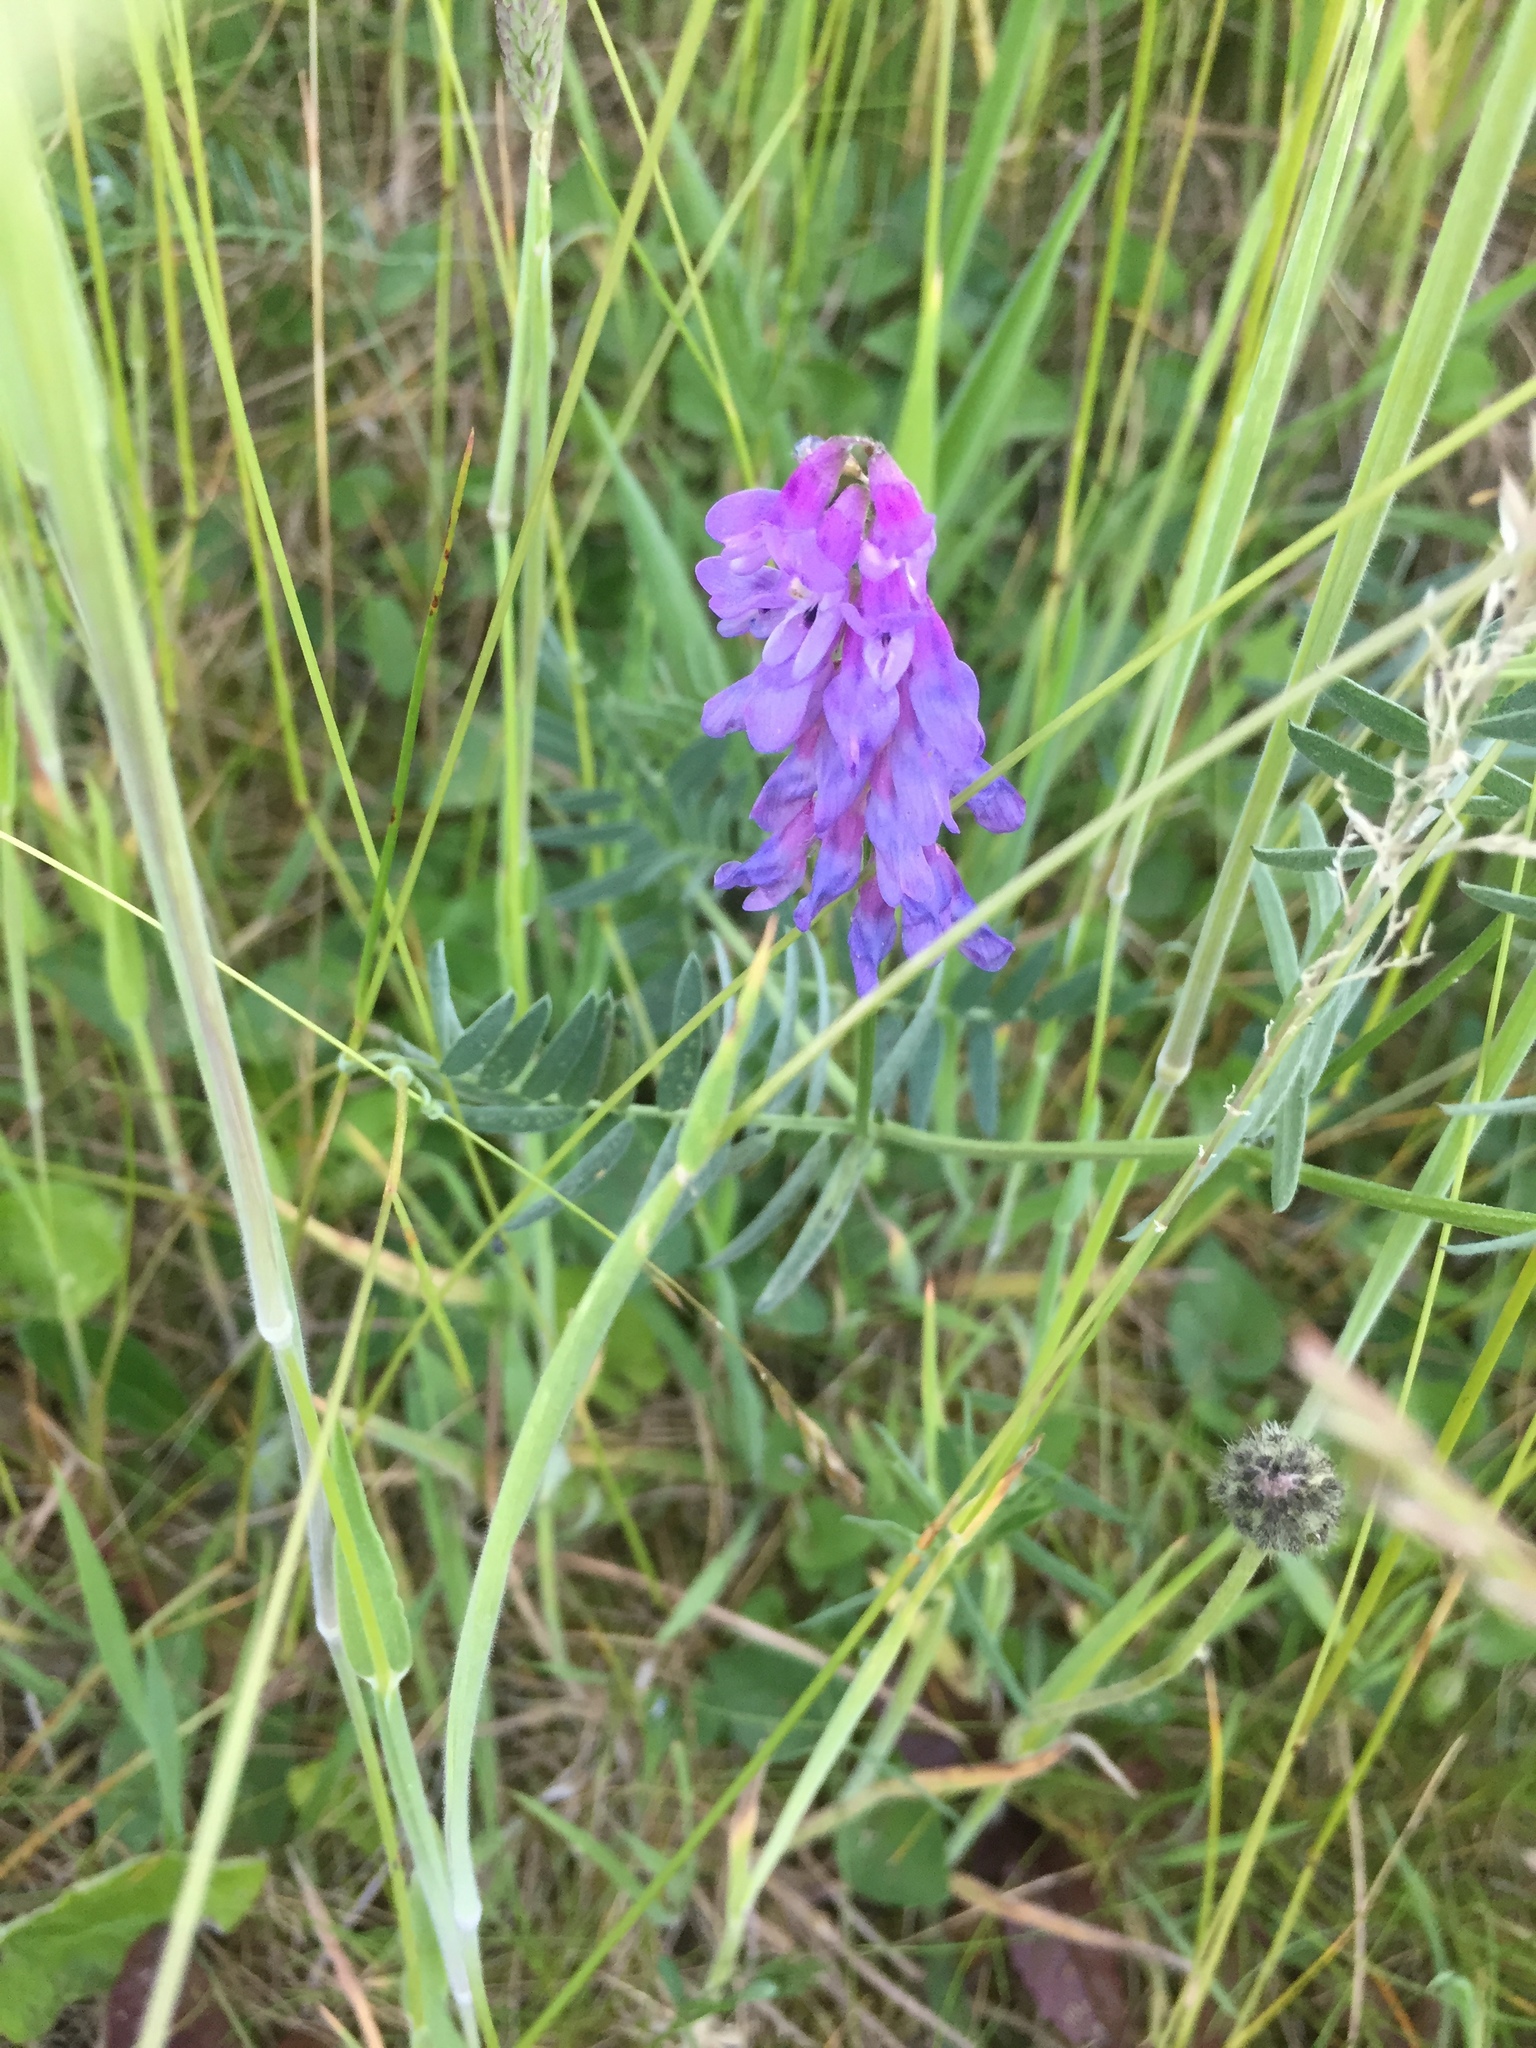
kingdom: Plantae
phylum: Tracheophyta
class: Magnoliopsida
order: Fabales
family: Fabaceae
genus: Vicia
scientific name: Vicia cracca
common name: Bird vetch
